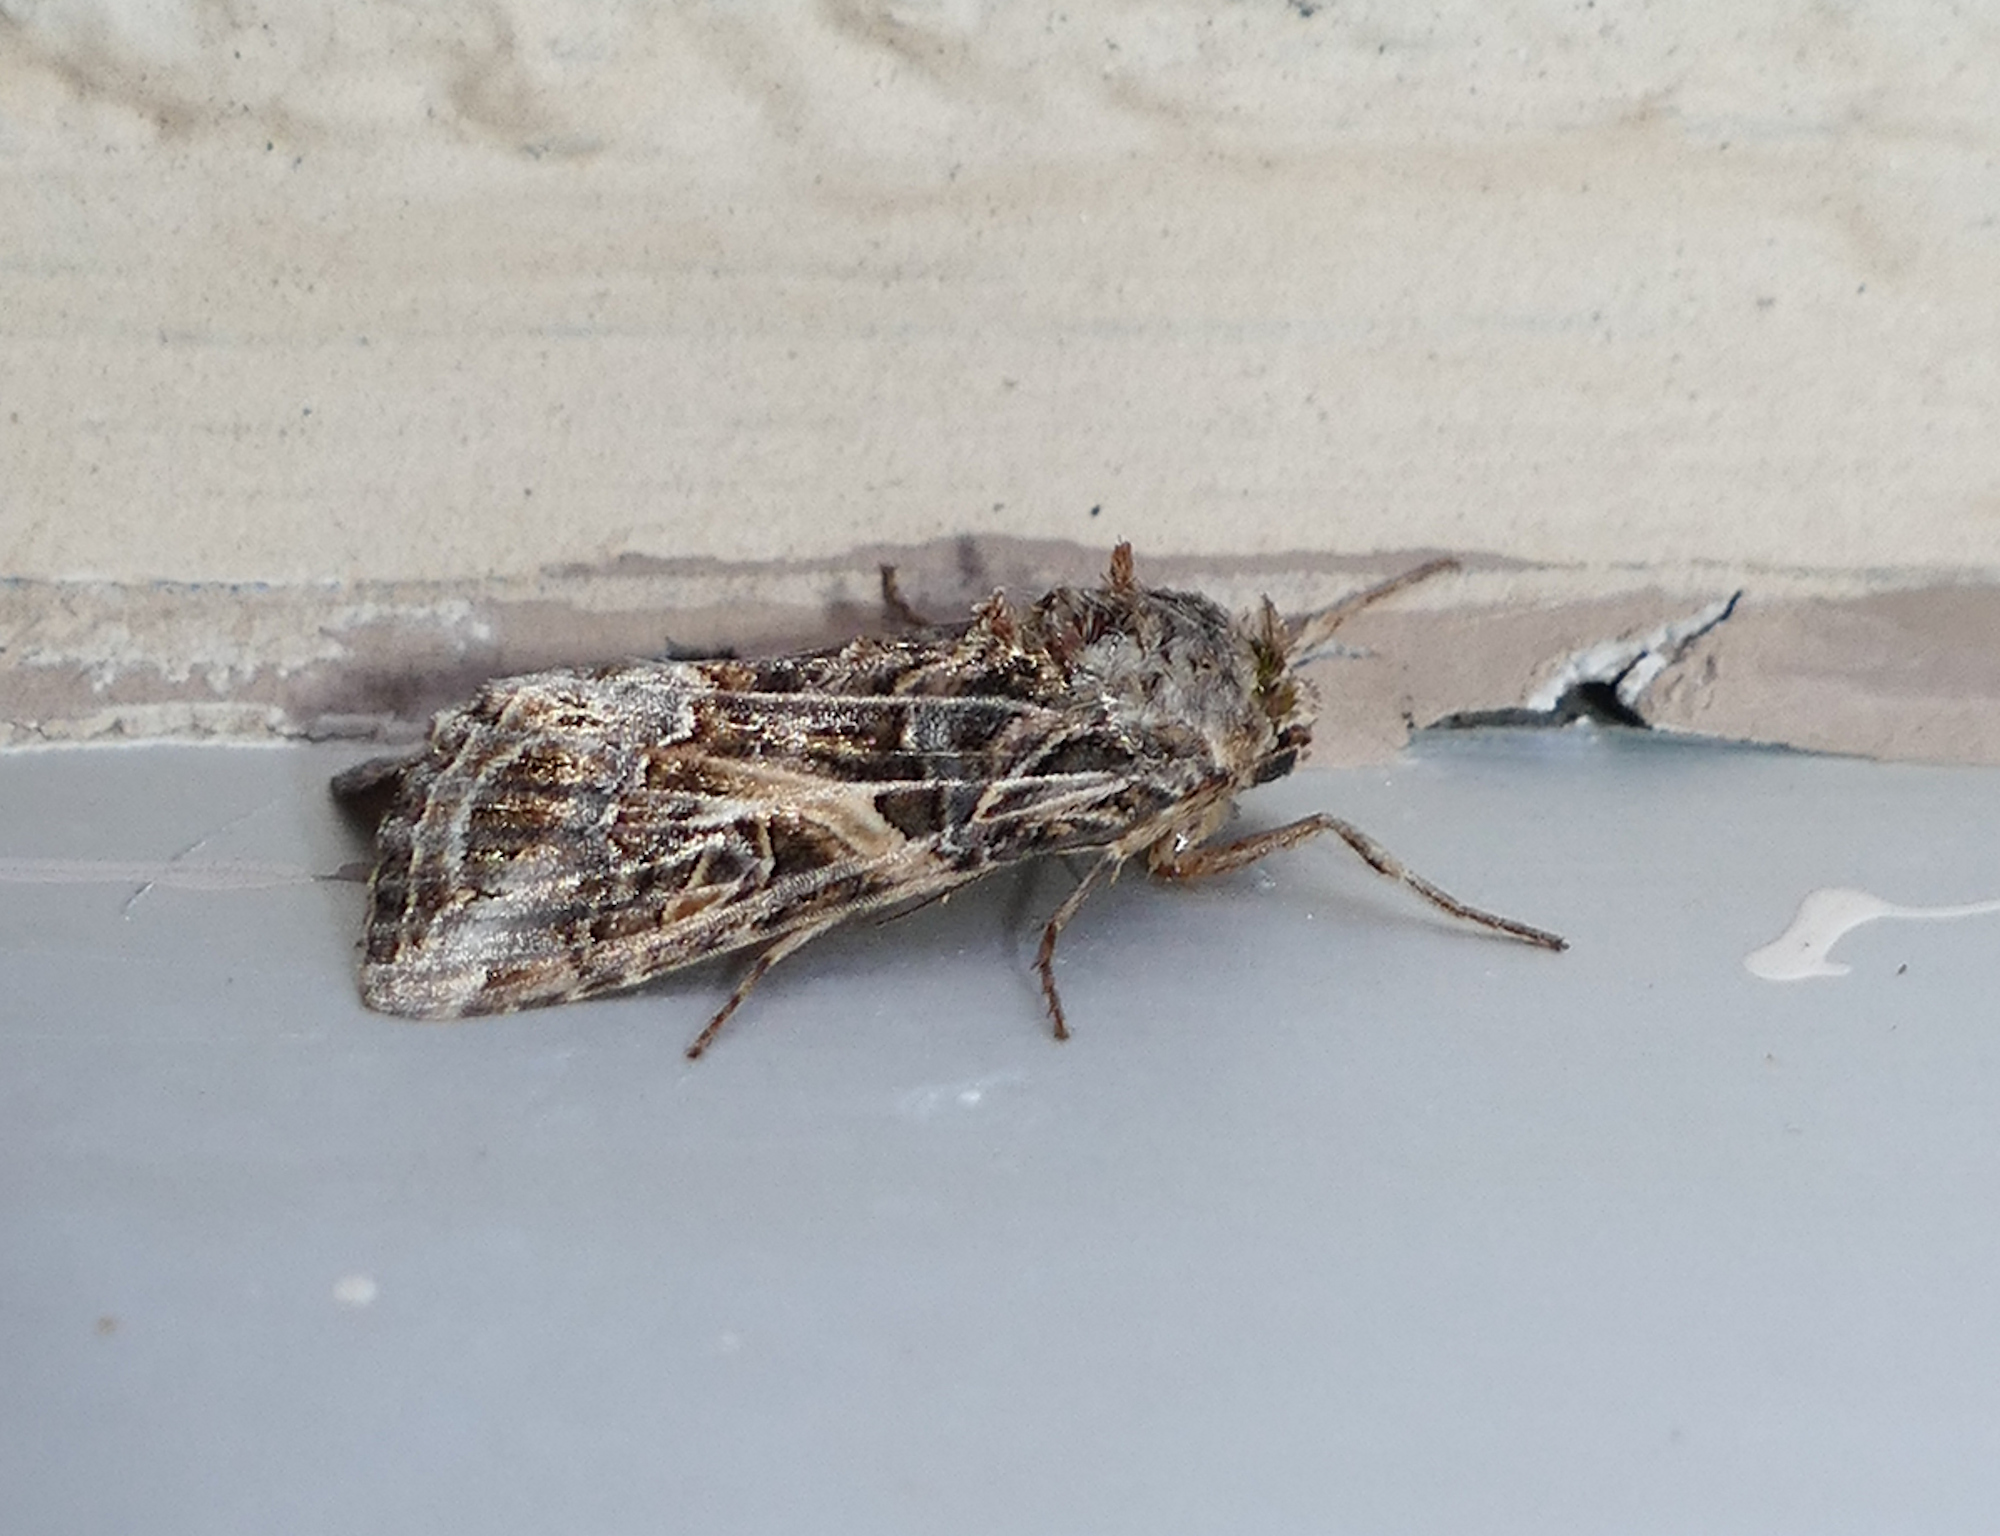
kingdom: Animalia
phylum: Arthropoda
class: Insecta
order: Lepidoptera
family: Noctuidae
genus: Spodoptera
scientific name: Spodoptera ornithogalli
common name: Yellow-striped armyworm
